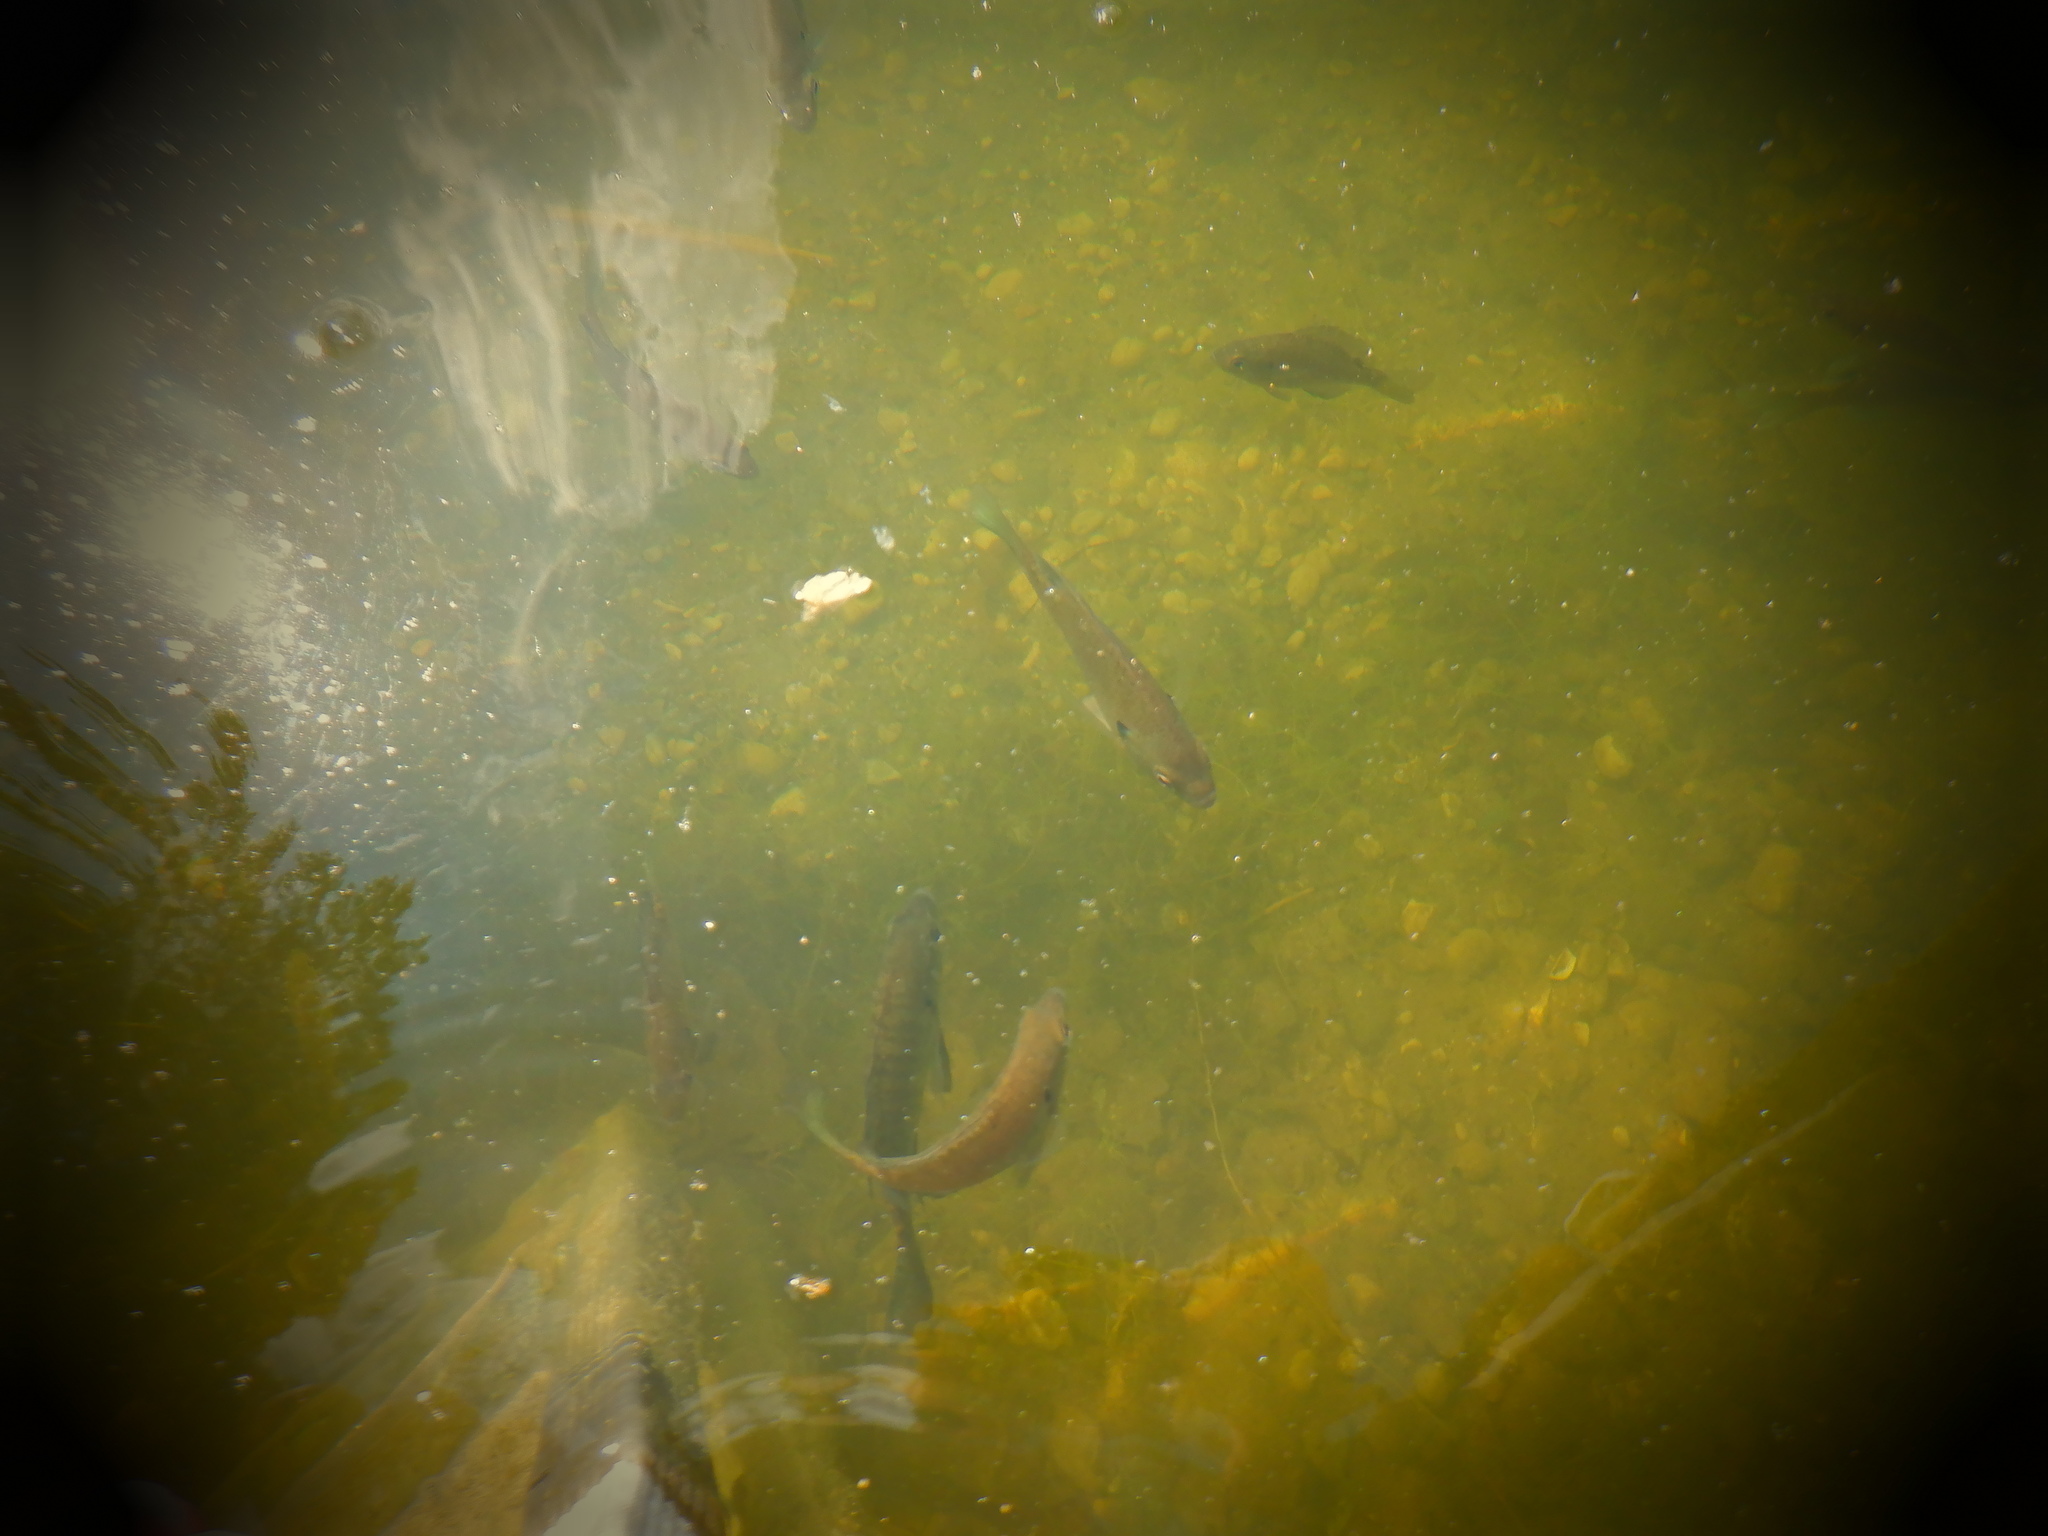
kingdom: Animalia
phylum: Chordata
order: Perciformes
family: Centrarchidae
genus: Lepomis
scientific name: Lepomis macrochirus
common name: Bluegill
